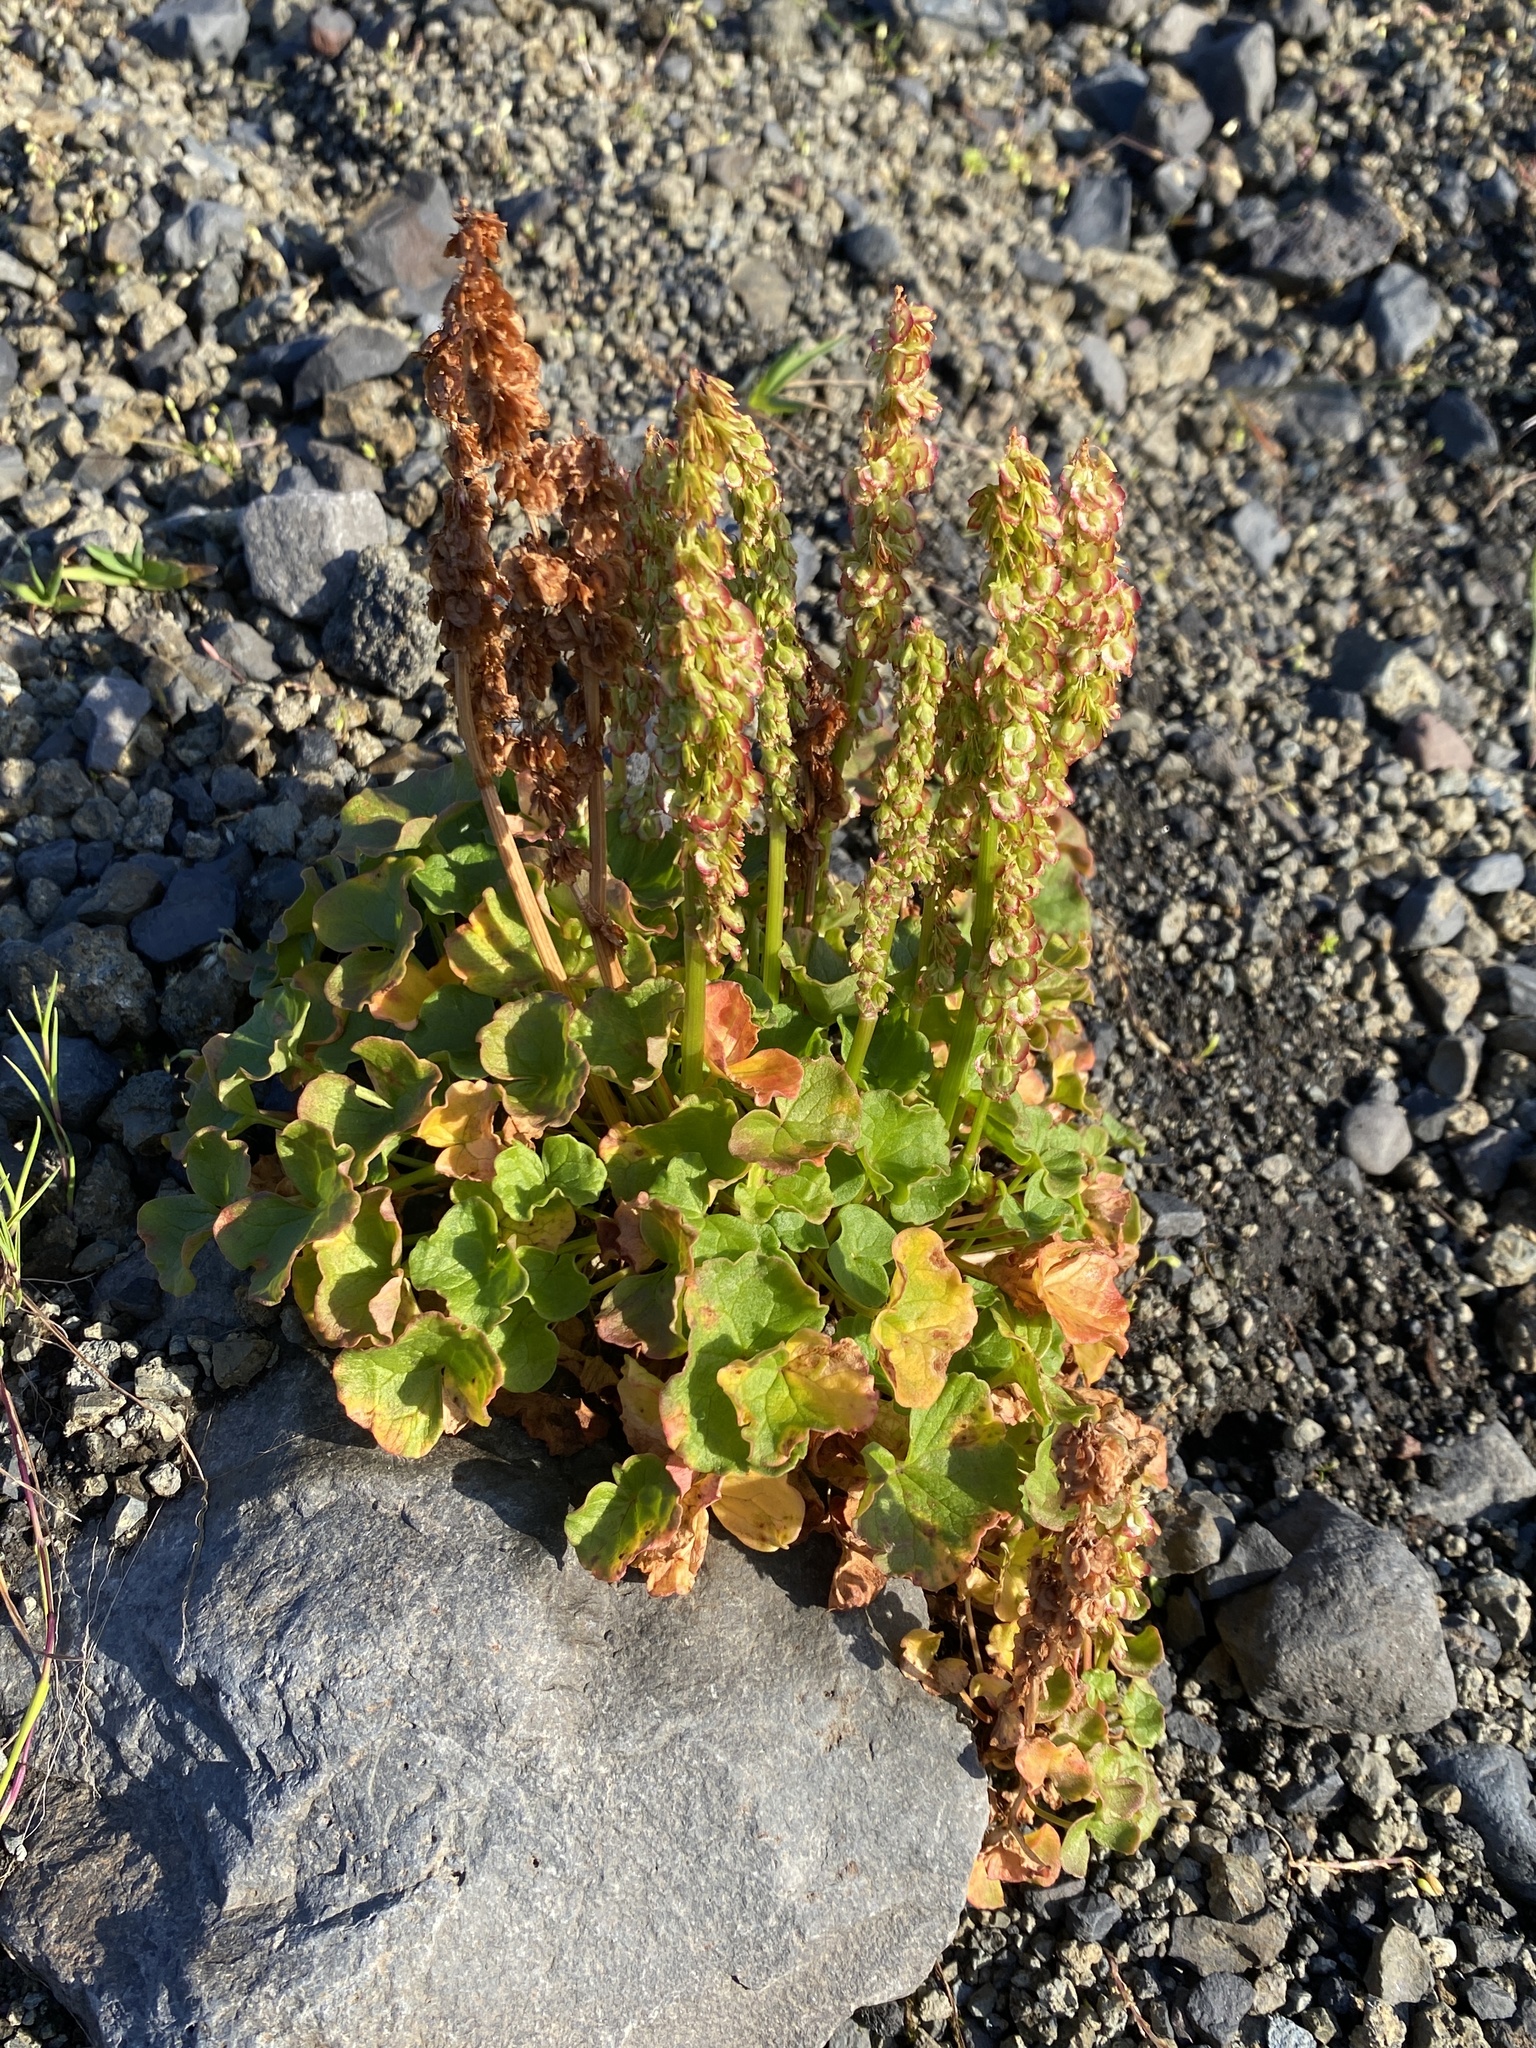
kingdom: Plantae
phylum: Tracheophyta
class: Magnoliopsida
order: Caryophyllales
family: Polygonaceae
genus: Oxyria
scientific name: Oxyria digyna
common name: Alpine mountain-sorrel
